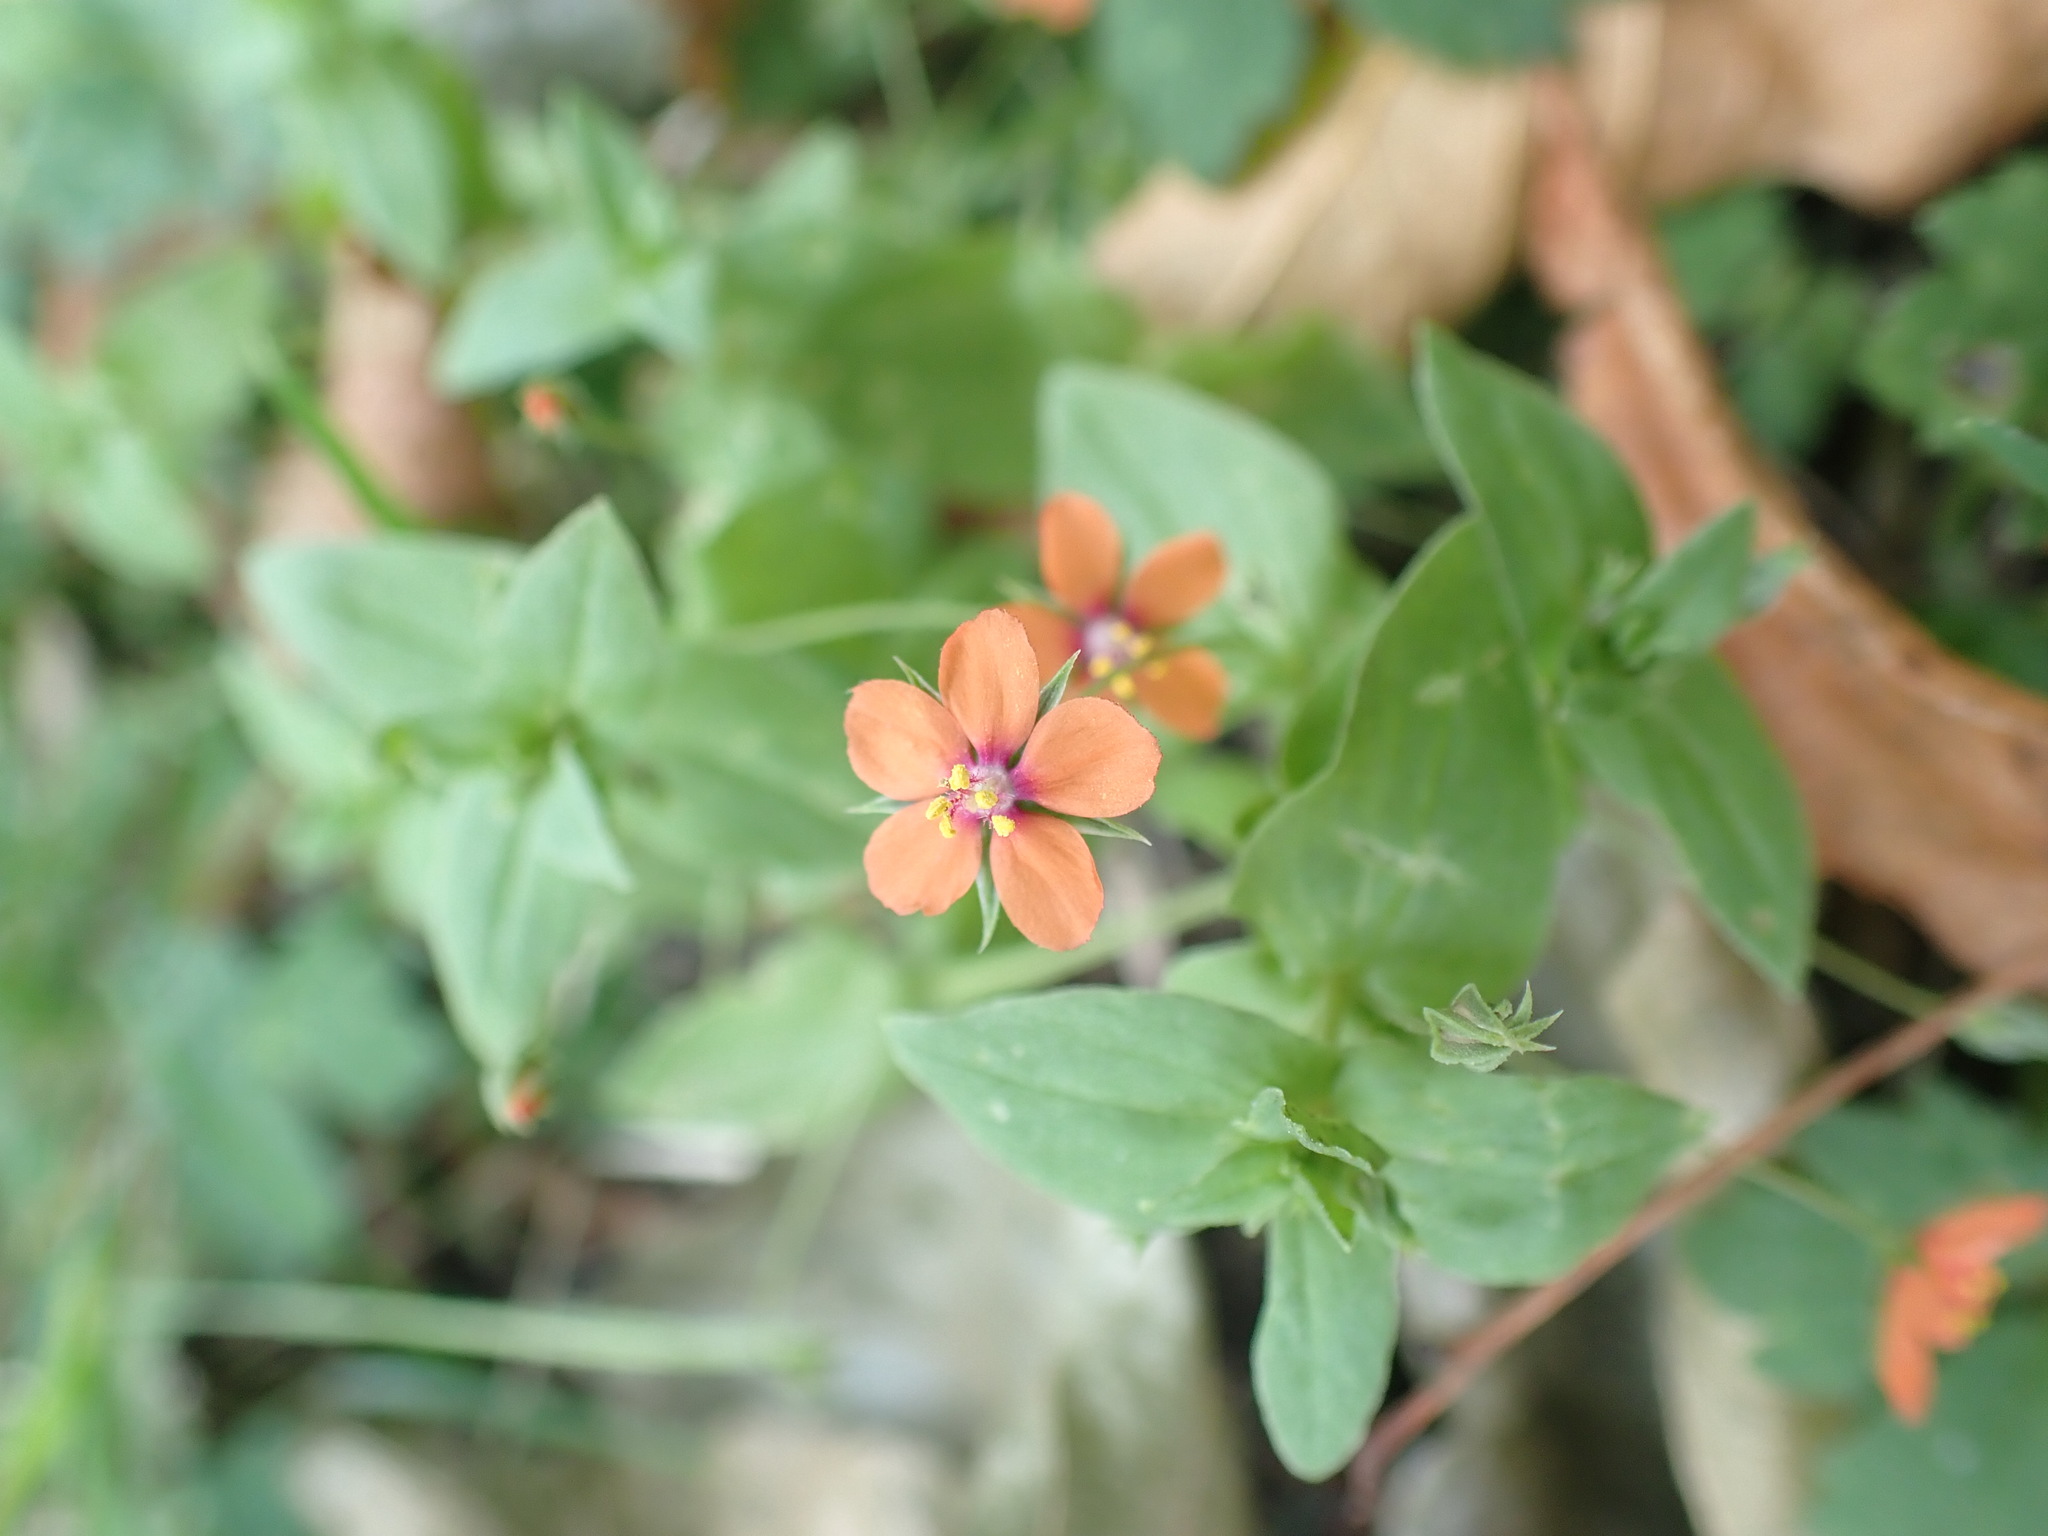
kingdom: Plantae
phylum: Tracheophyta
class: Magnoliopsida
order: Ericales
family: Primulaceae
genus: Lysimachia
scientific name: Lysimachia arvensis
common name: Scarlet pimpernel
